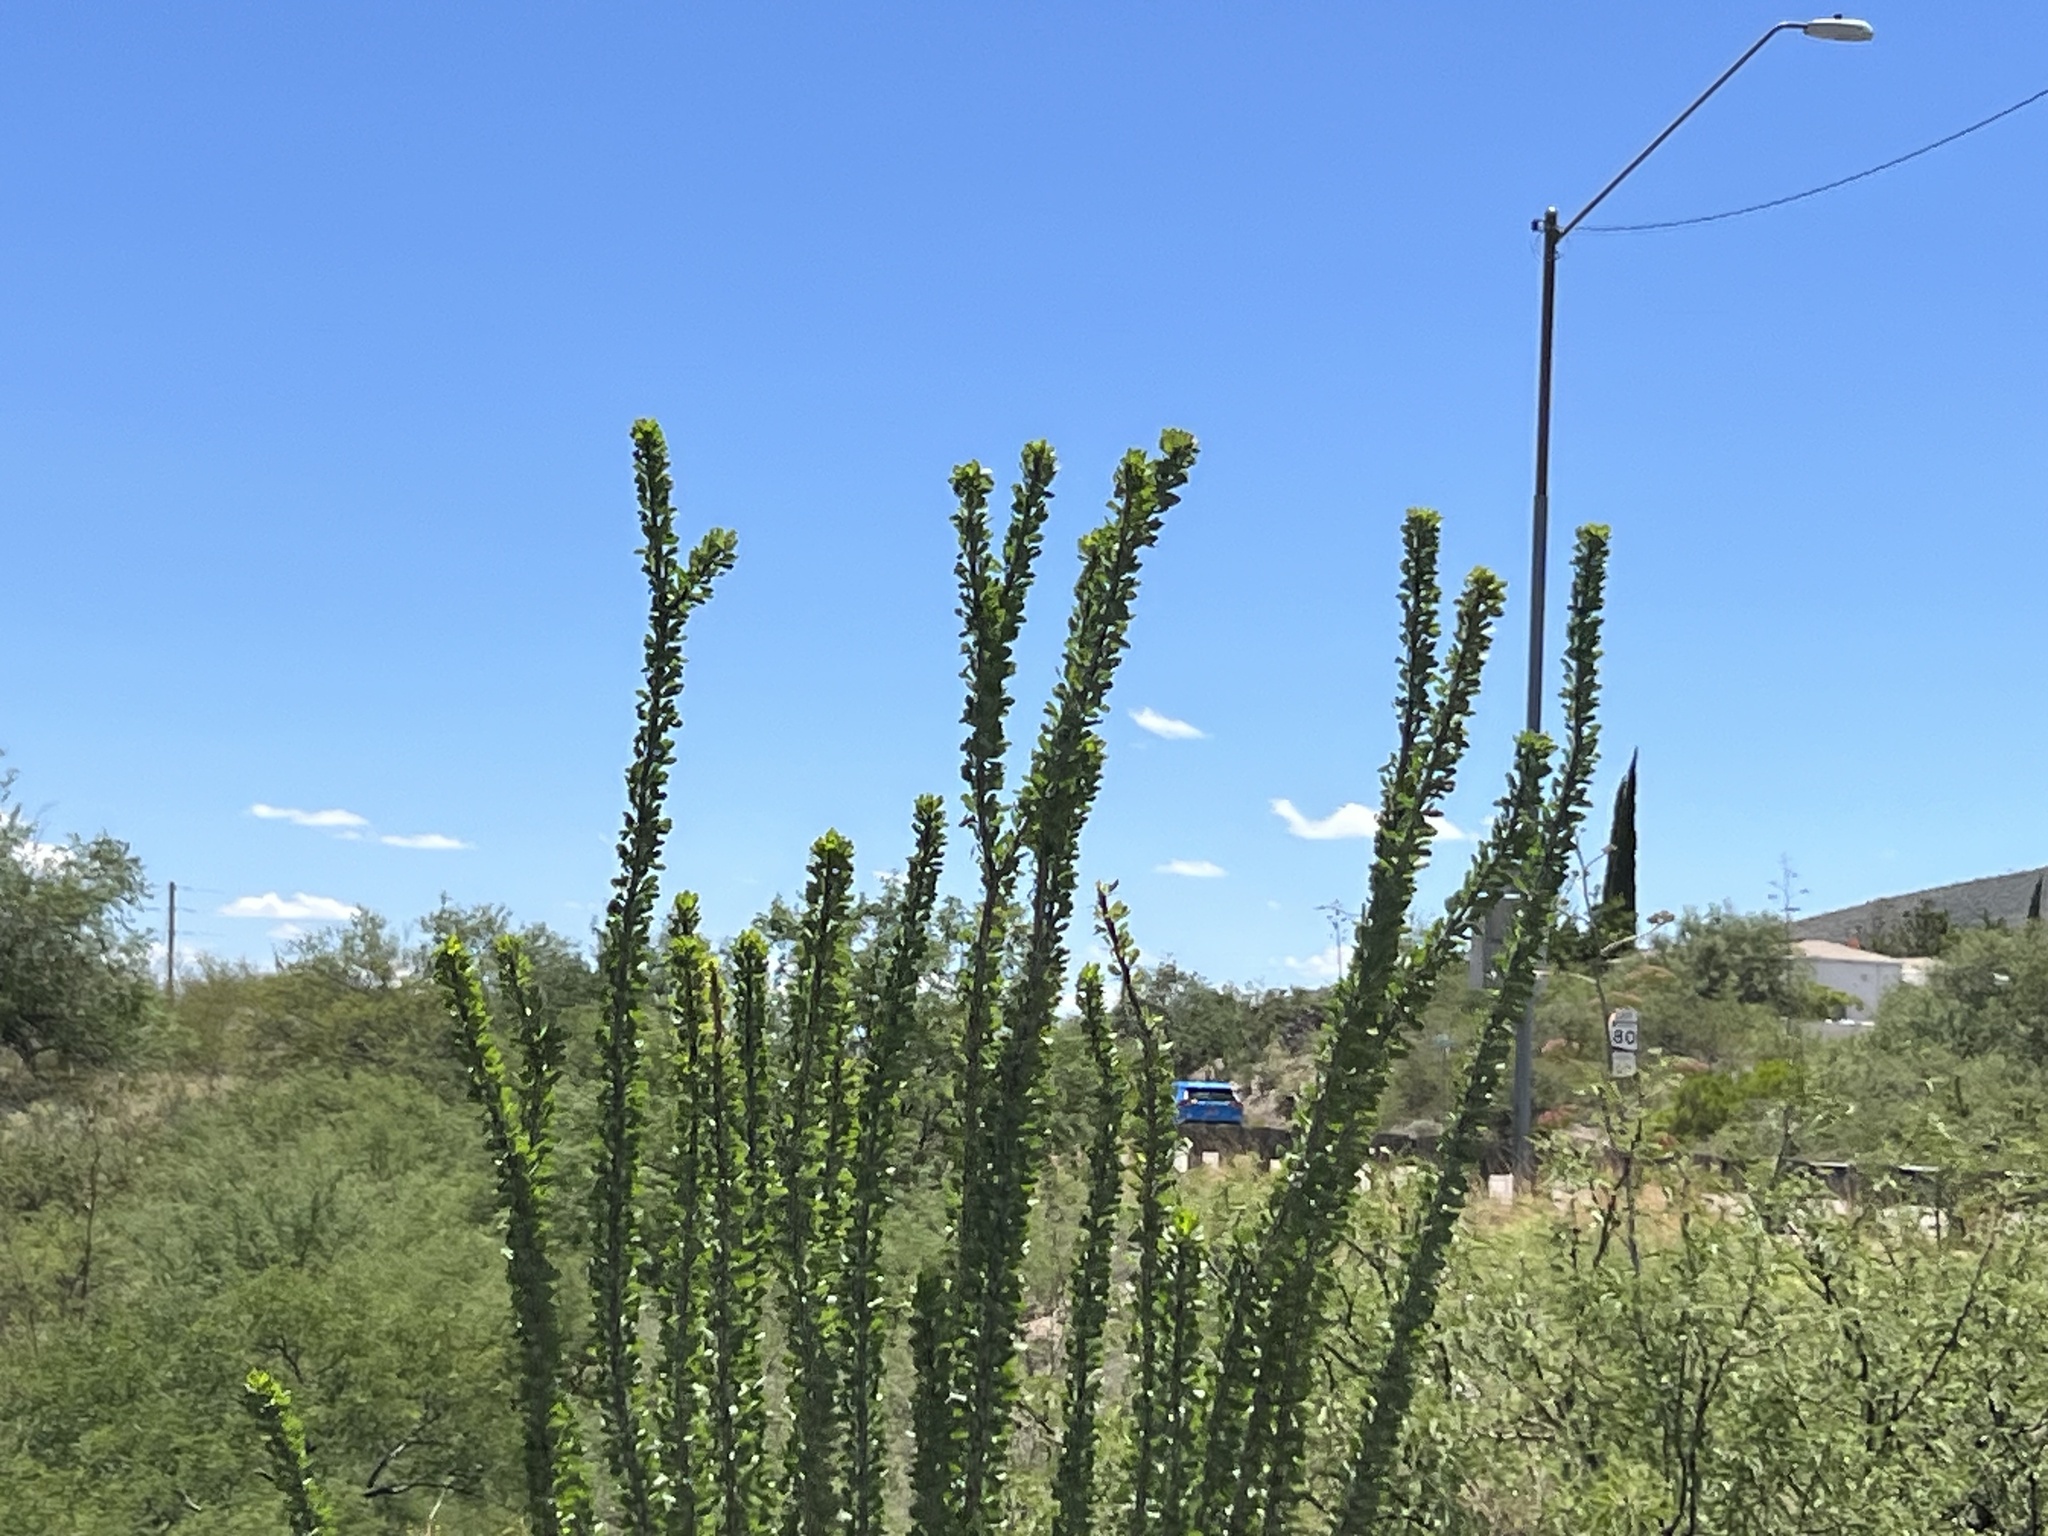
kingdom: Plantae
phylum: Tracheophyta
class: Magnoliopsida
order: Ericales
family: Fouquieriaceae
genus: Fouquieria
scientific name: Fouquieria splendens
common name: Vine-cactus
